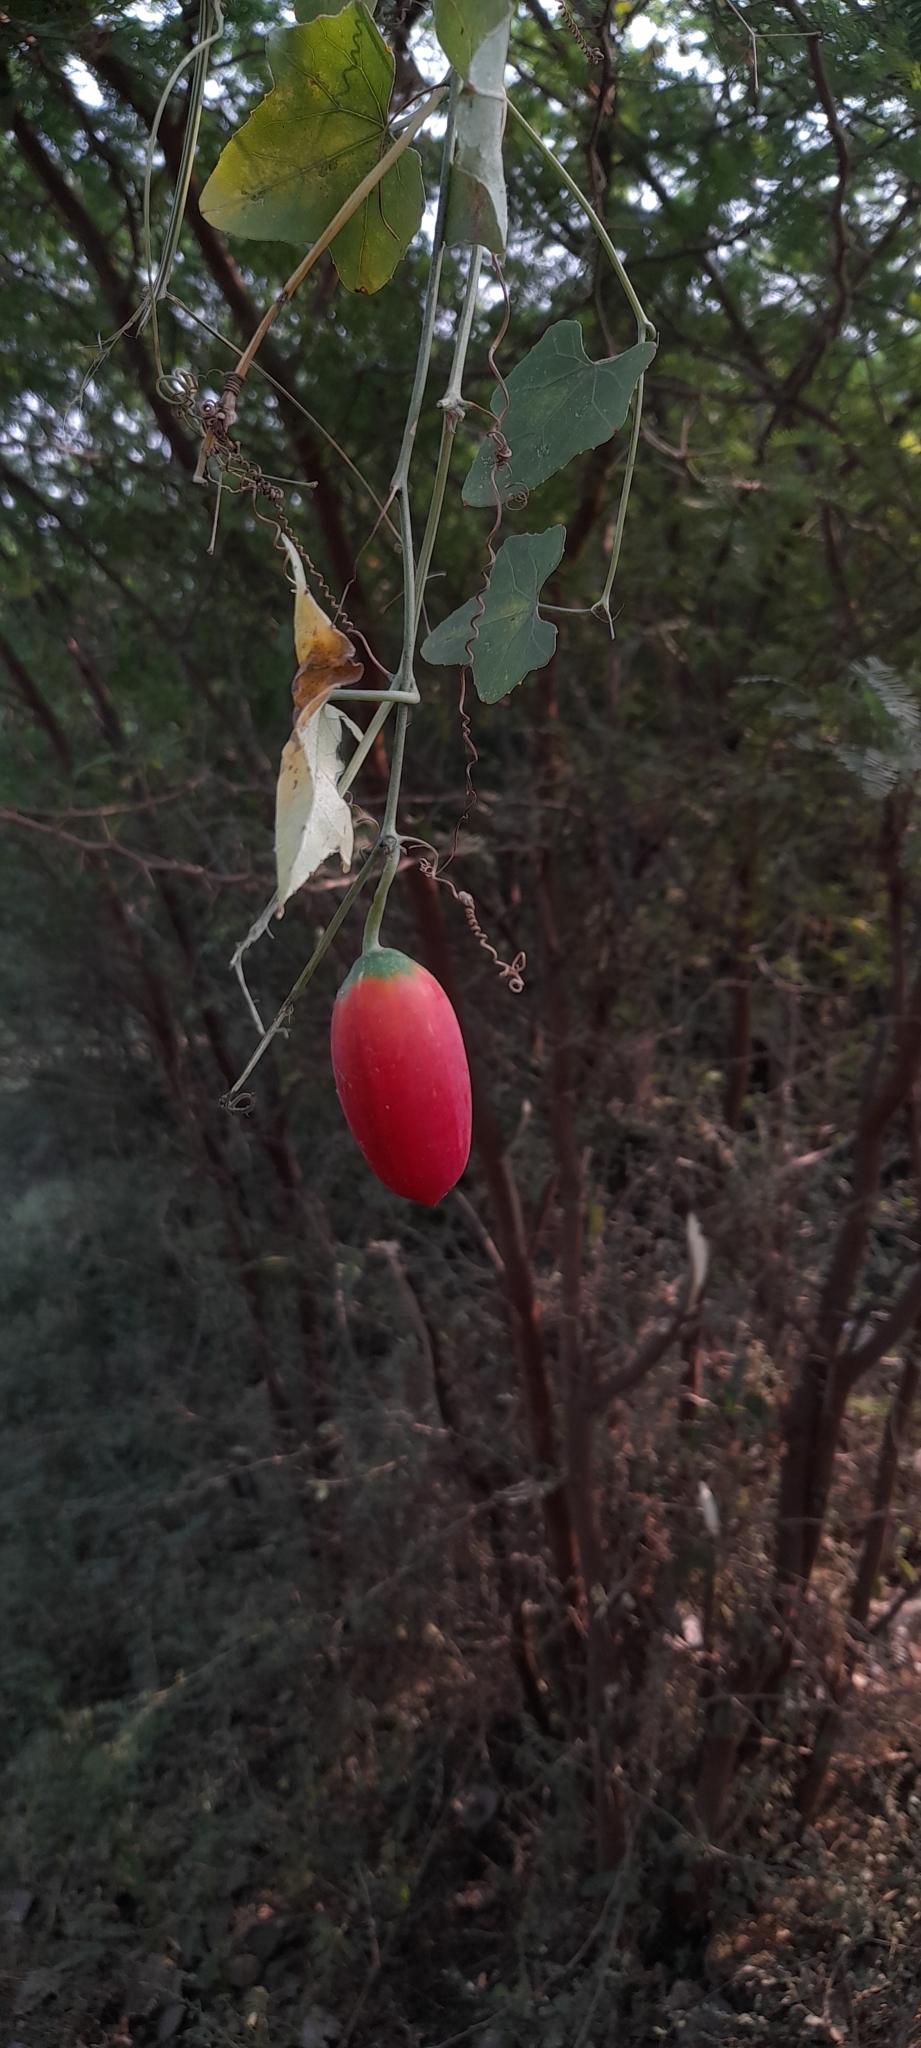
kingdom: Plantae
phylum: Tracheophyta
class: Magnoliopsida
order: Cucurbitales
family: Cucurbitaceae
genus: Coccinia
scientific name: Coccinia grandis
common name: Ivy gourd
